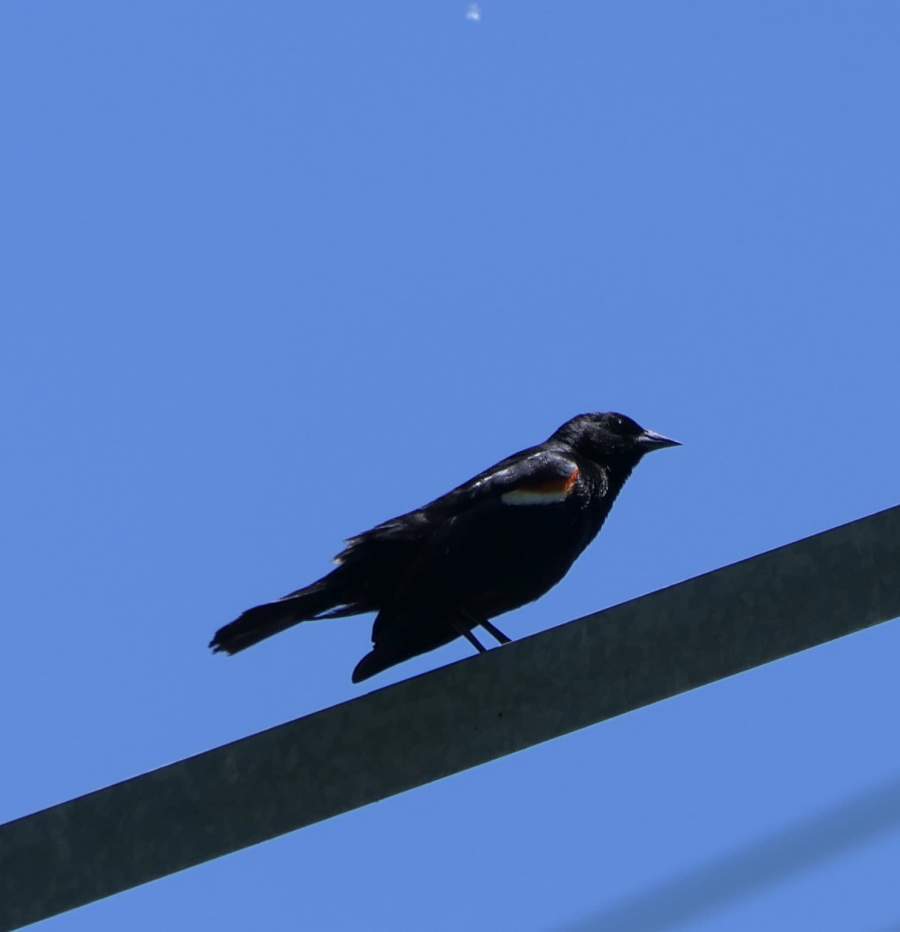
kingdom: Animalia
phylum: Chordata
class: Aves
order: Passeriformes
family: Icteridae
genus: Agelaius
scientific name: Agelaius phoeniceus
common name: Red-winged blackbird
